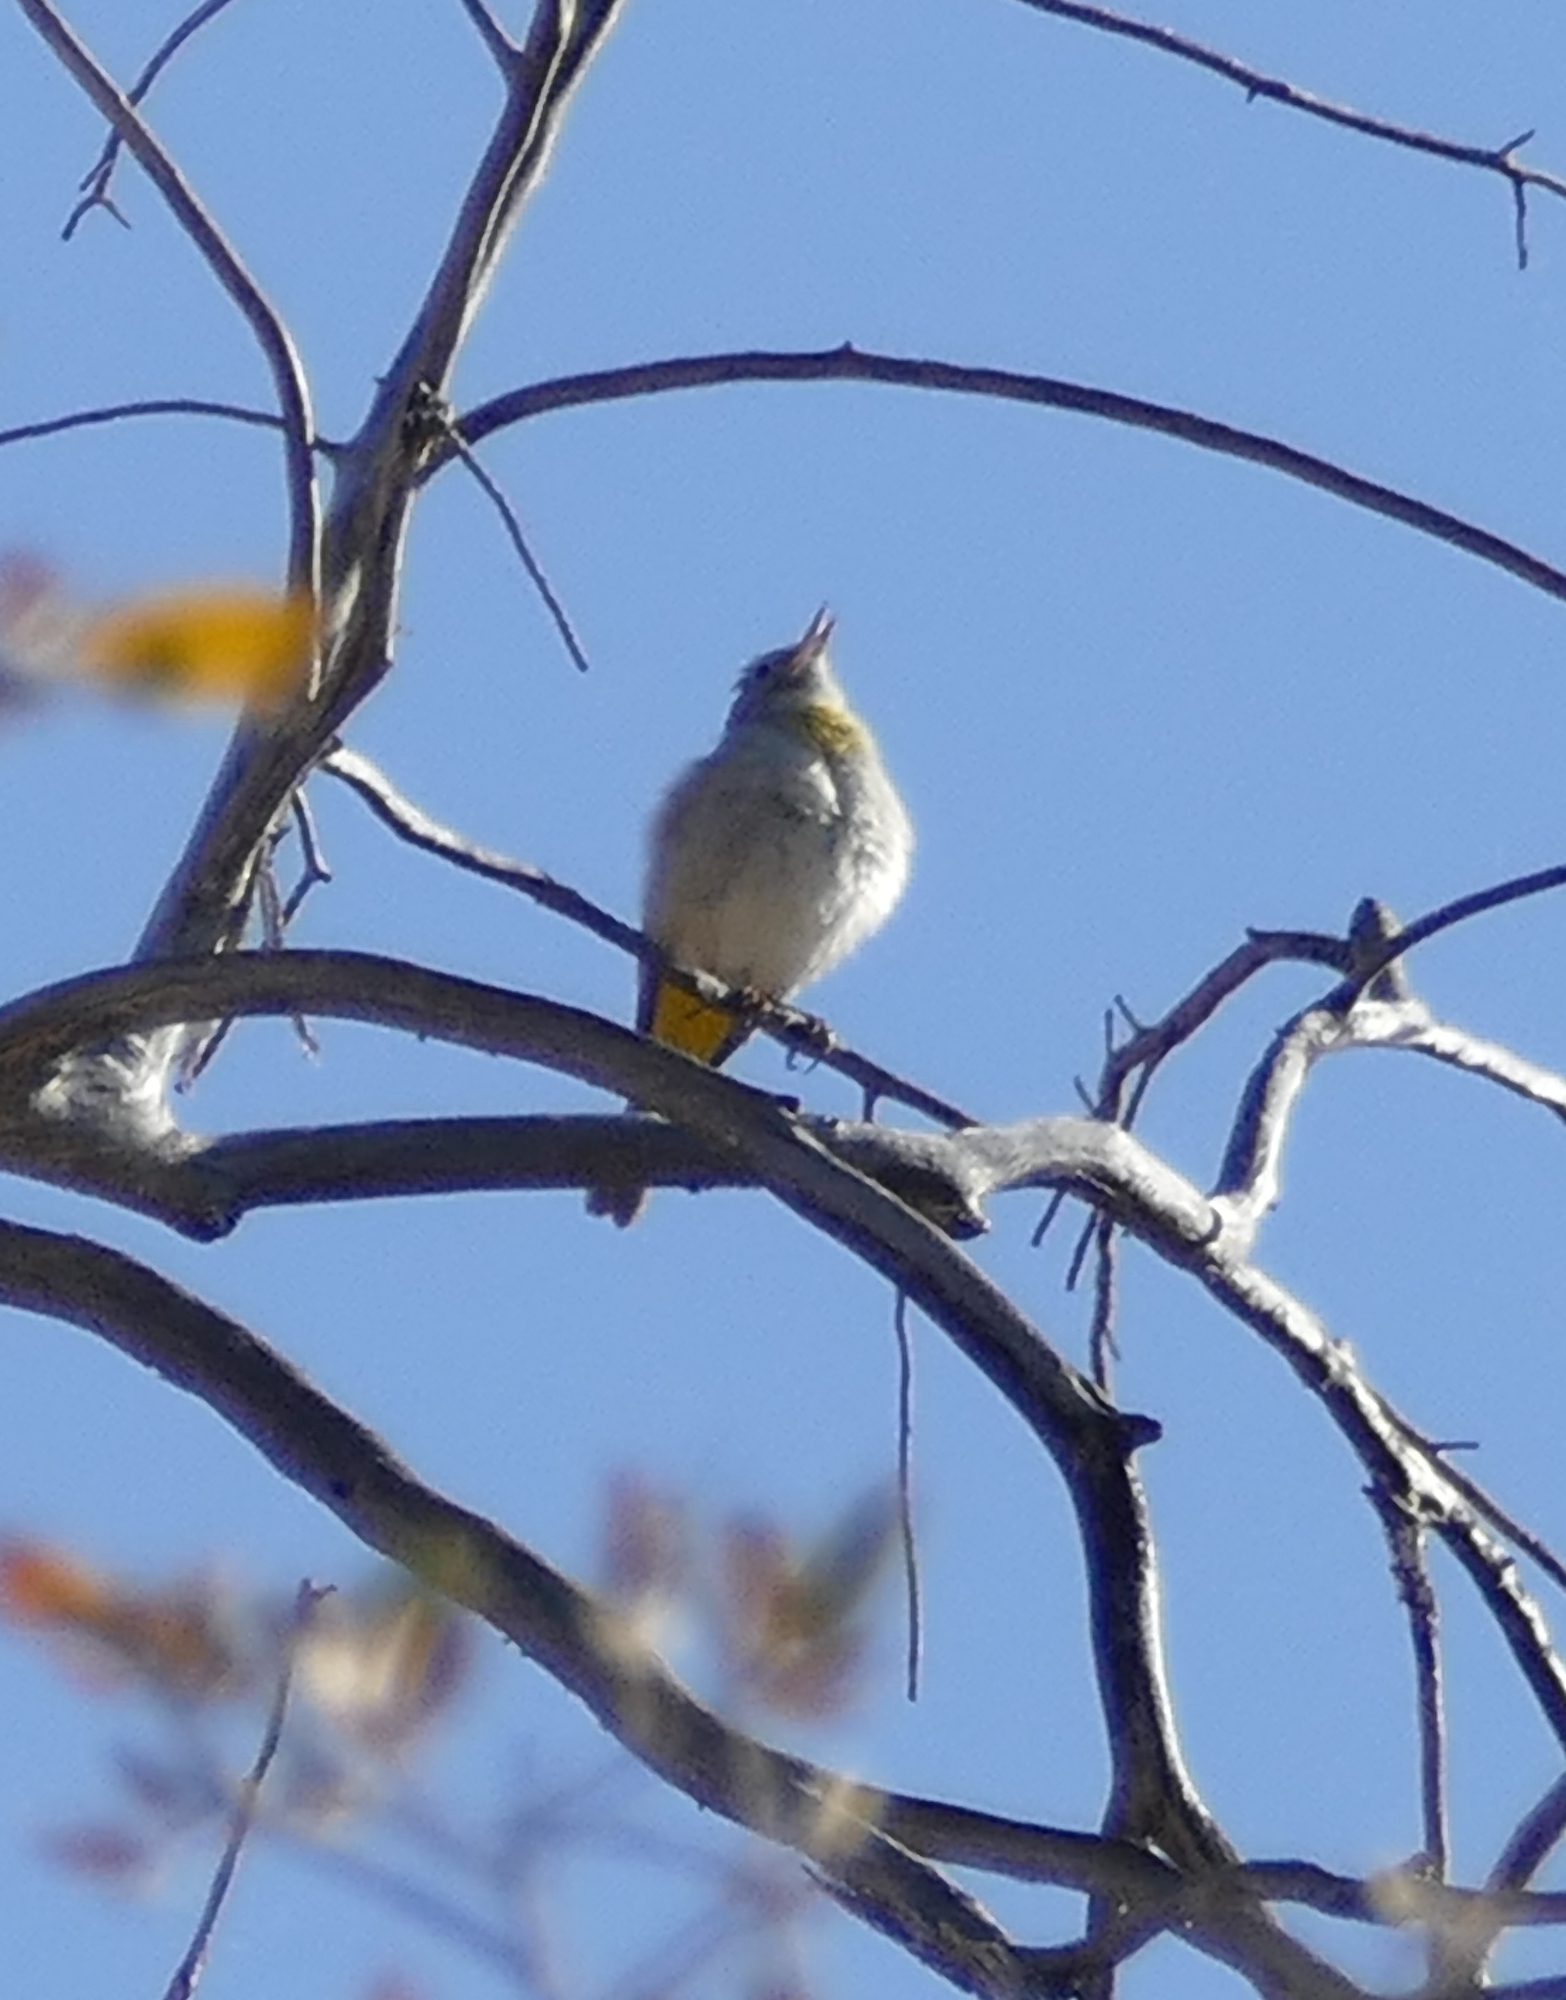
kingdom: Animalia
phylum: Chordata
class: Aves
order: Passeriformes
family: Parulidae
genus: Leiothlypis
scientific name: Leiothlypis virginiae
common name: Virginia's warbler
